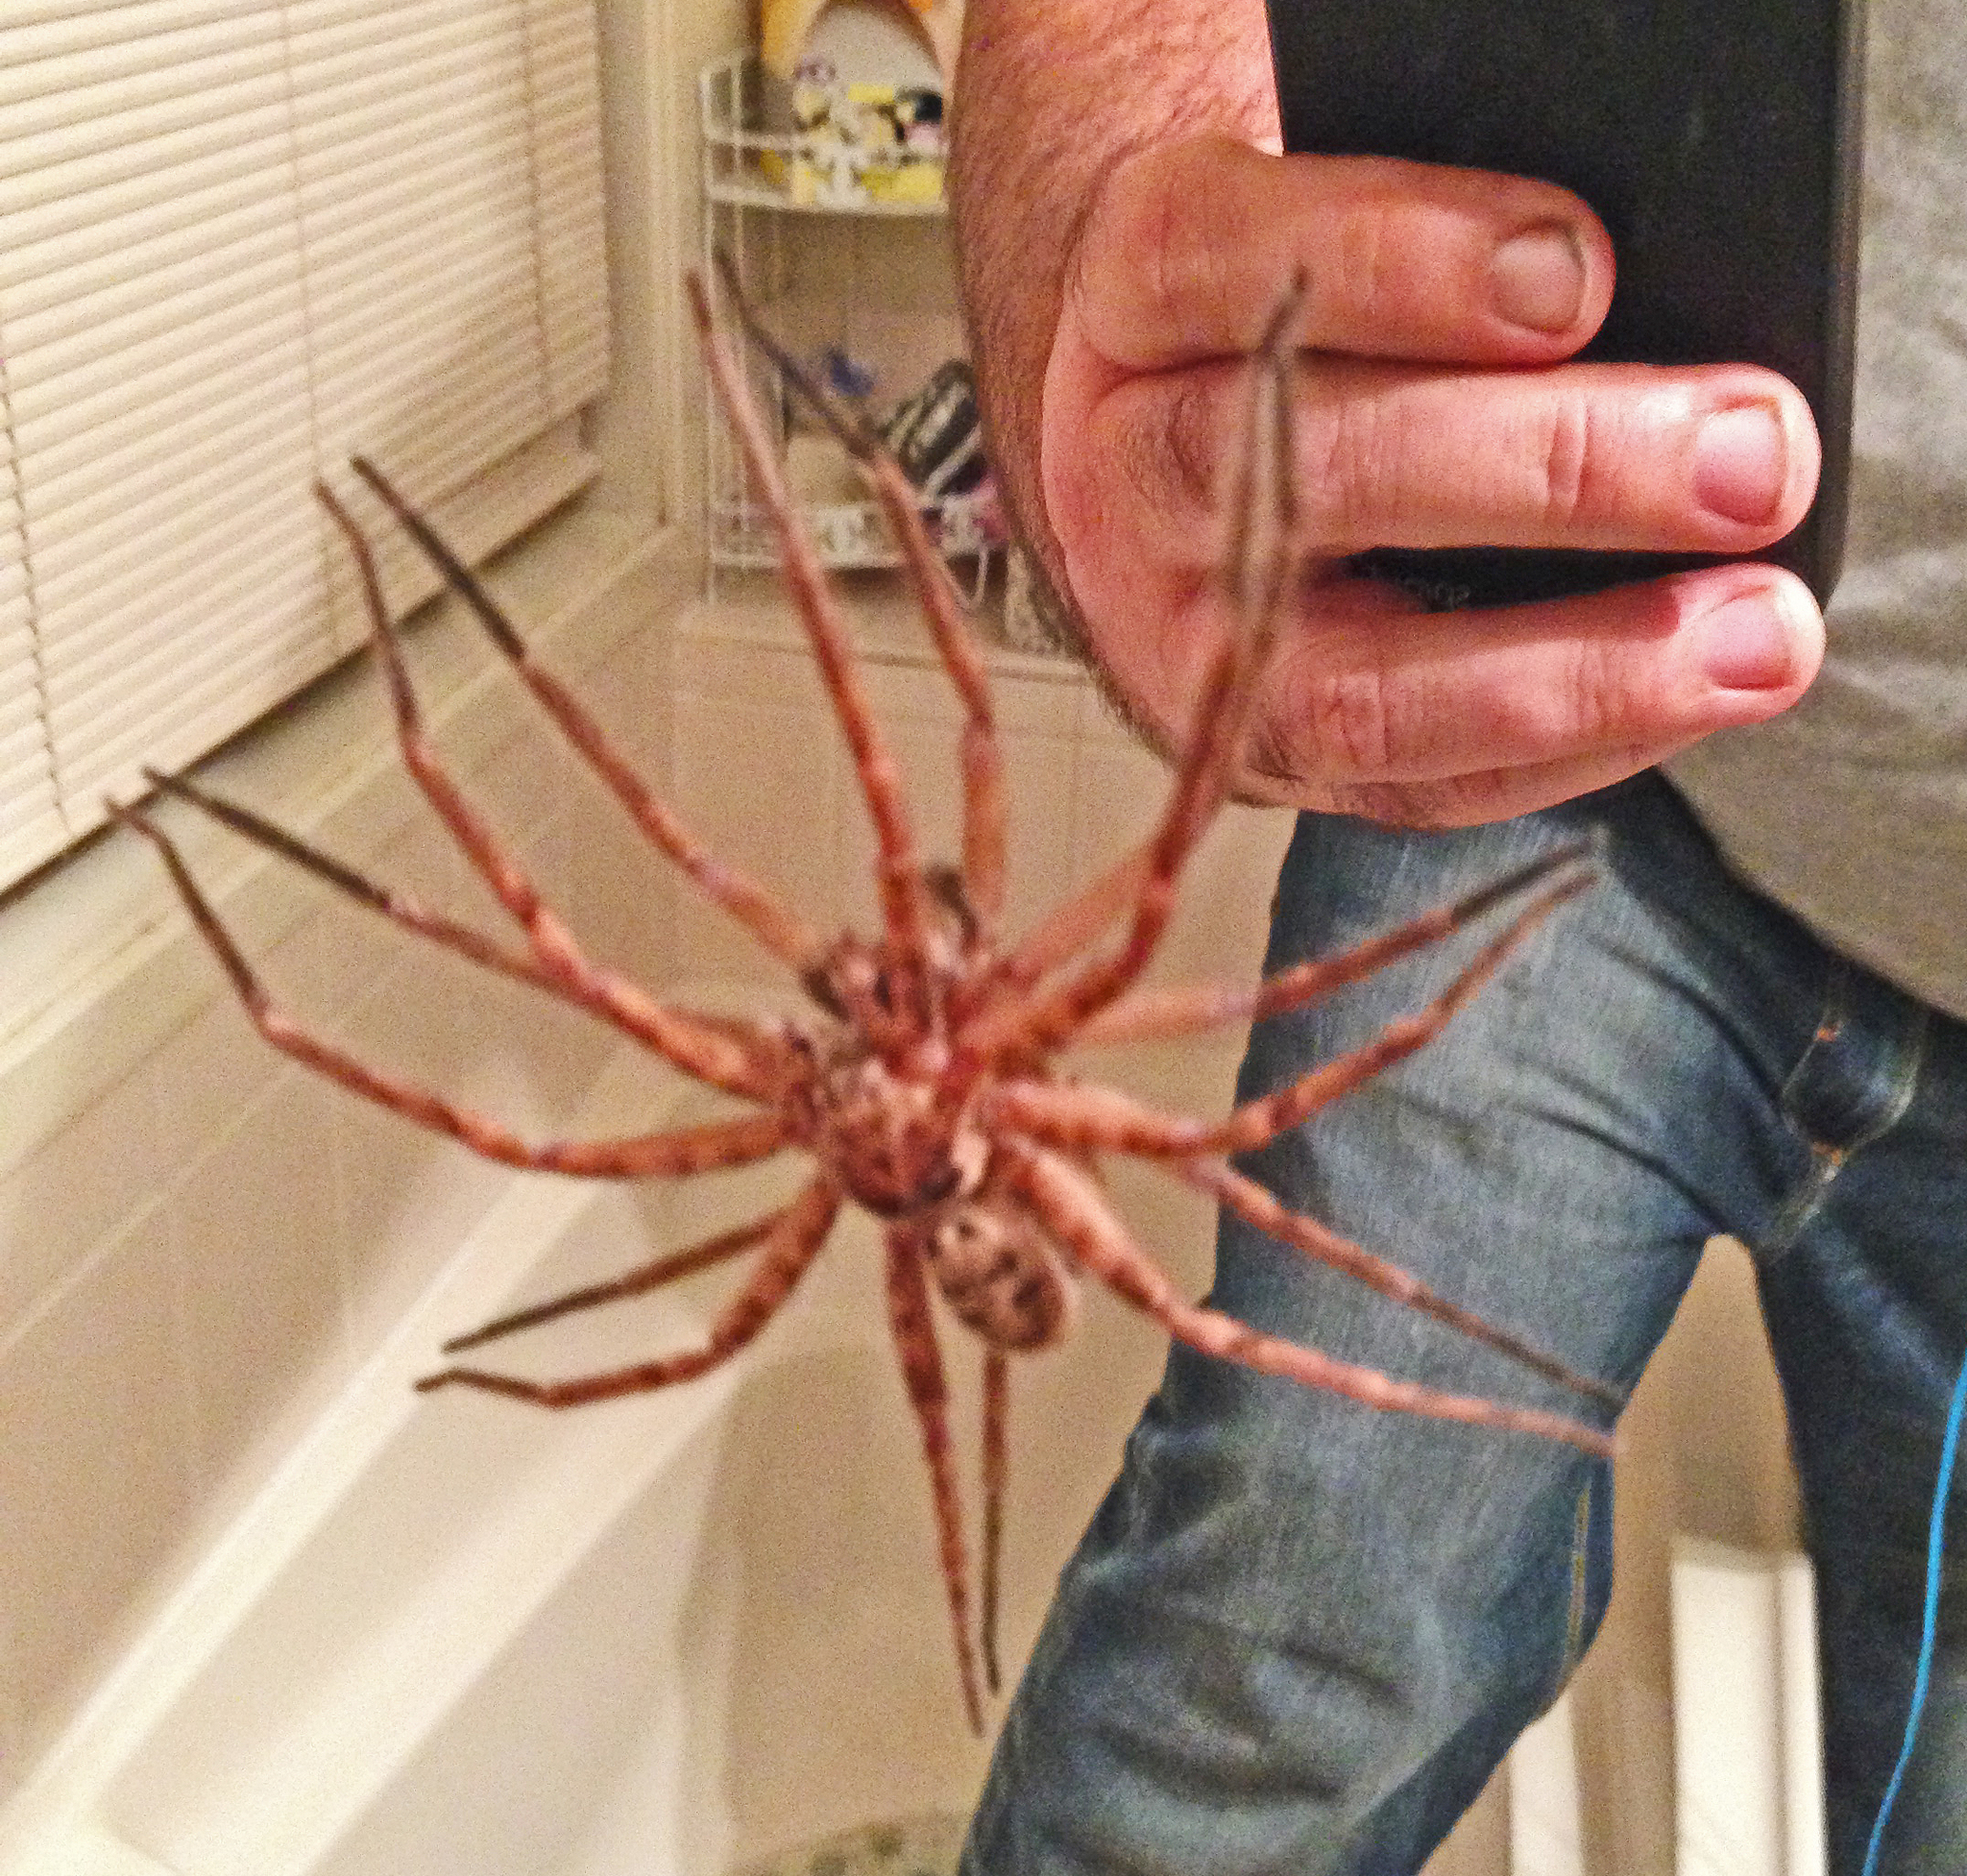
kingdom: Animalia
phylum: Arthropoda
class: Arachnida
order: Araneae
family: Sparassidae
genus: Heteropoda
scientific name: Heteropoda jugulans
